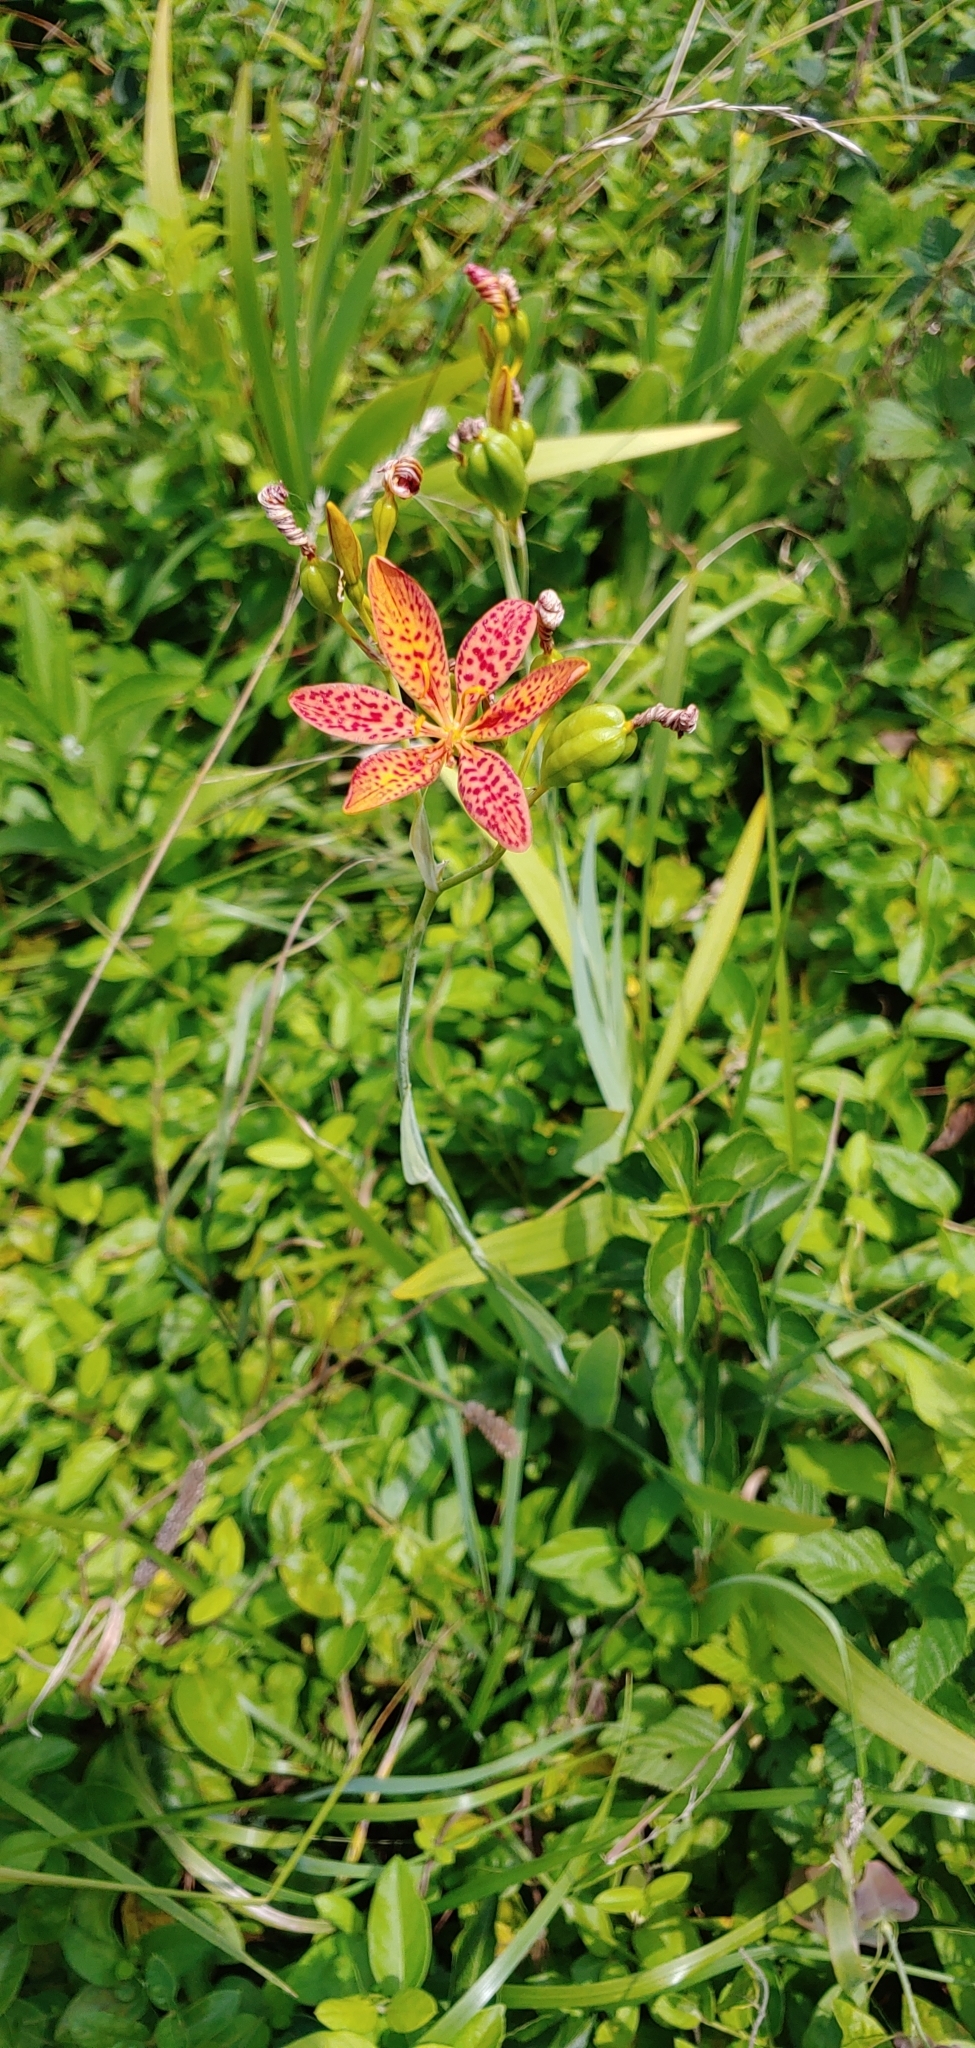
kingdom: Plantae
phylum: Tracheophyta
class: Liliopsida
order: Asparagales
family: Iridaceae
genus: Iris
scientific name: Iris domestica
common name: Belamcanda
